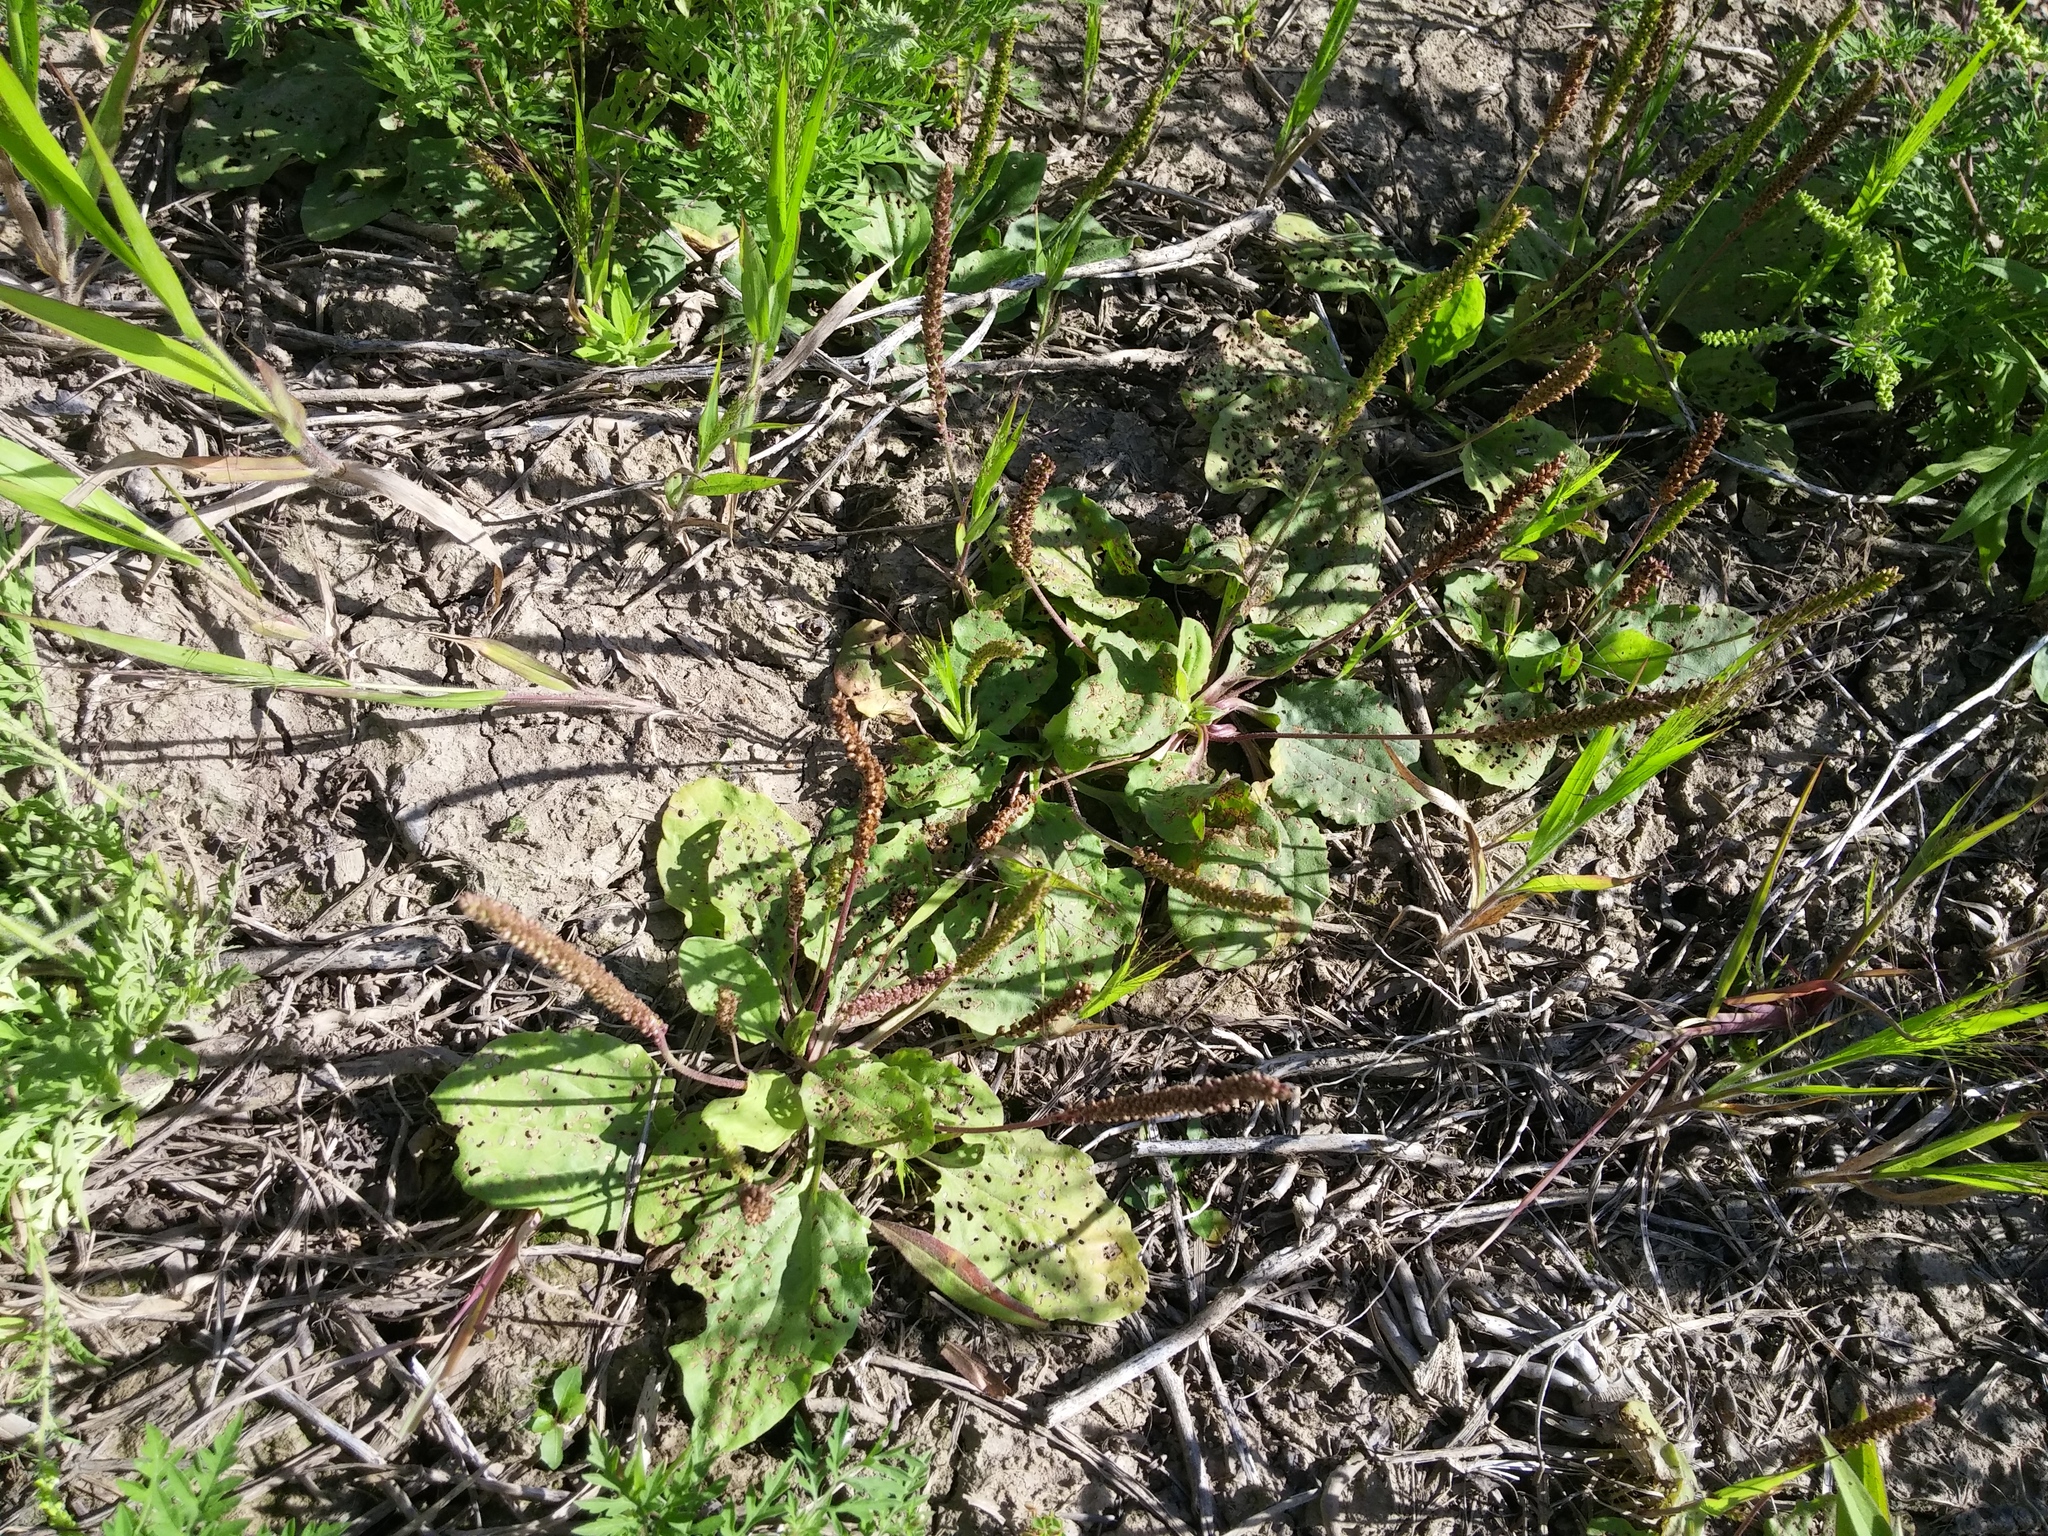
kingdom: Plantae
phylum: Tracheophyta
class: Magnoliopsida
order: Lamiales
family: Plantaginaceae
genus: Plantago
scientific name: Plantago major
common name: Common plantain
